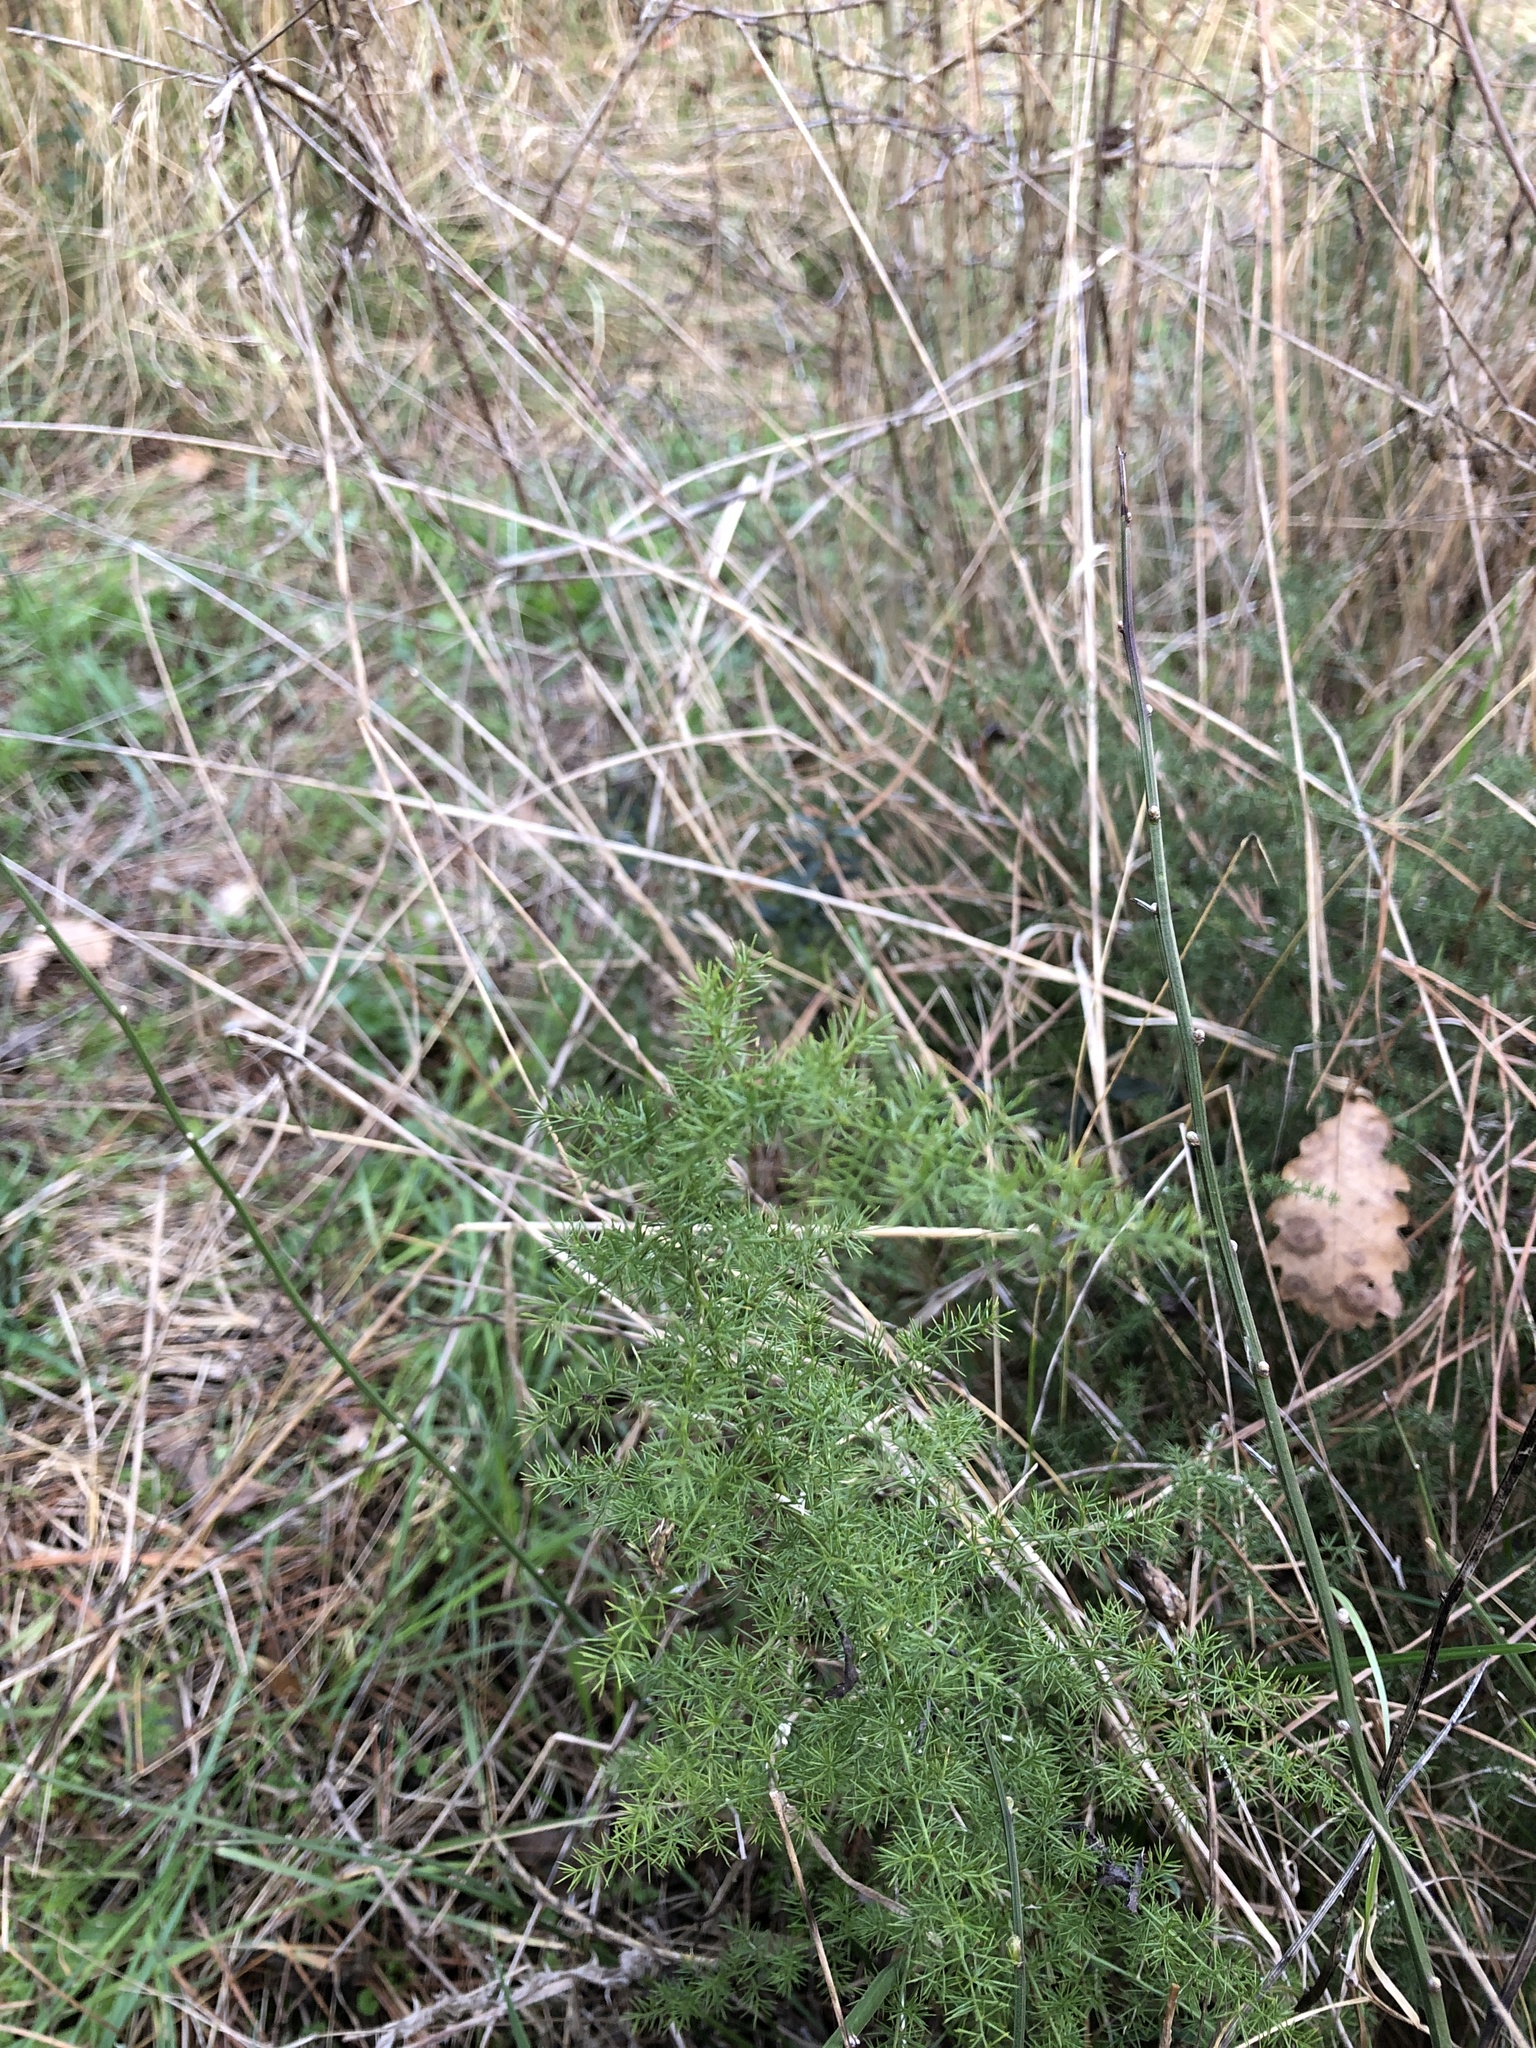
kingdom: Plantae
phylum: Tracheophyta
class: Liliopsida
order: Asparagales
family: Asparagaceae
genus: Asparagus
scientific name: Asparagus acutifolius
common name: Wild asparagus
